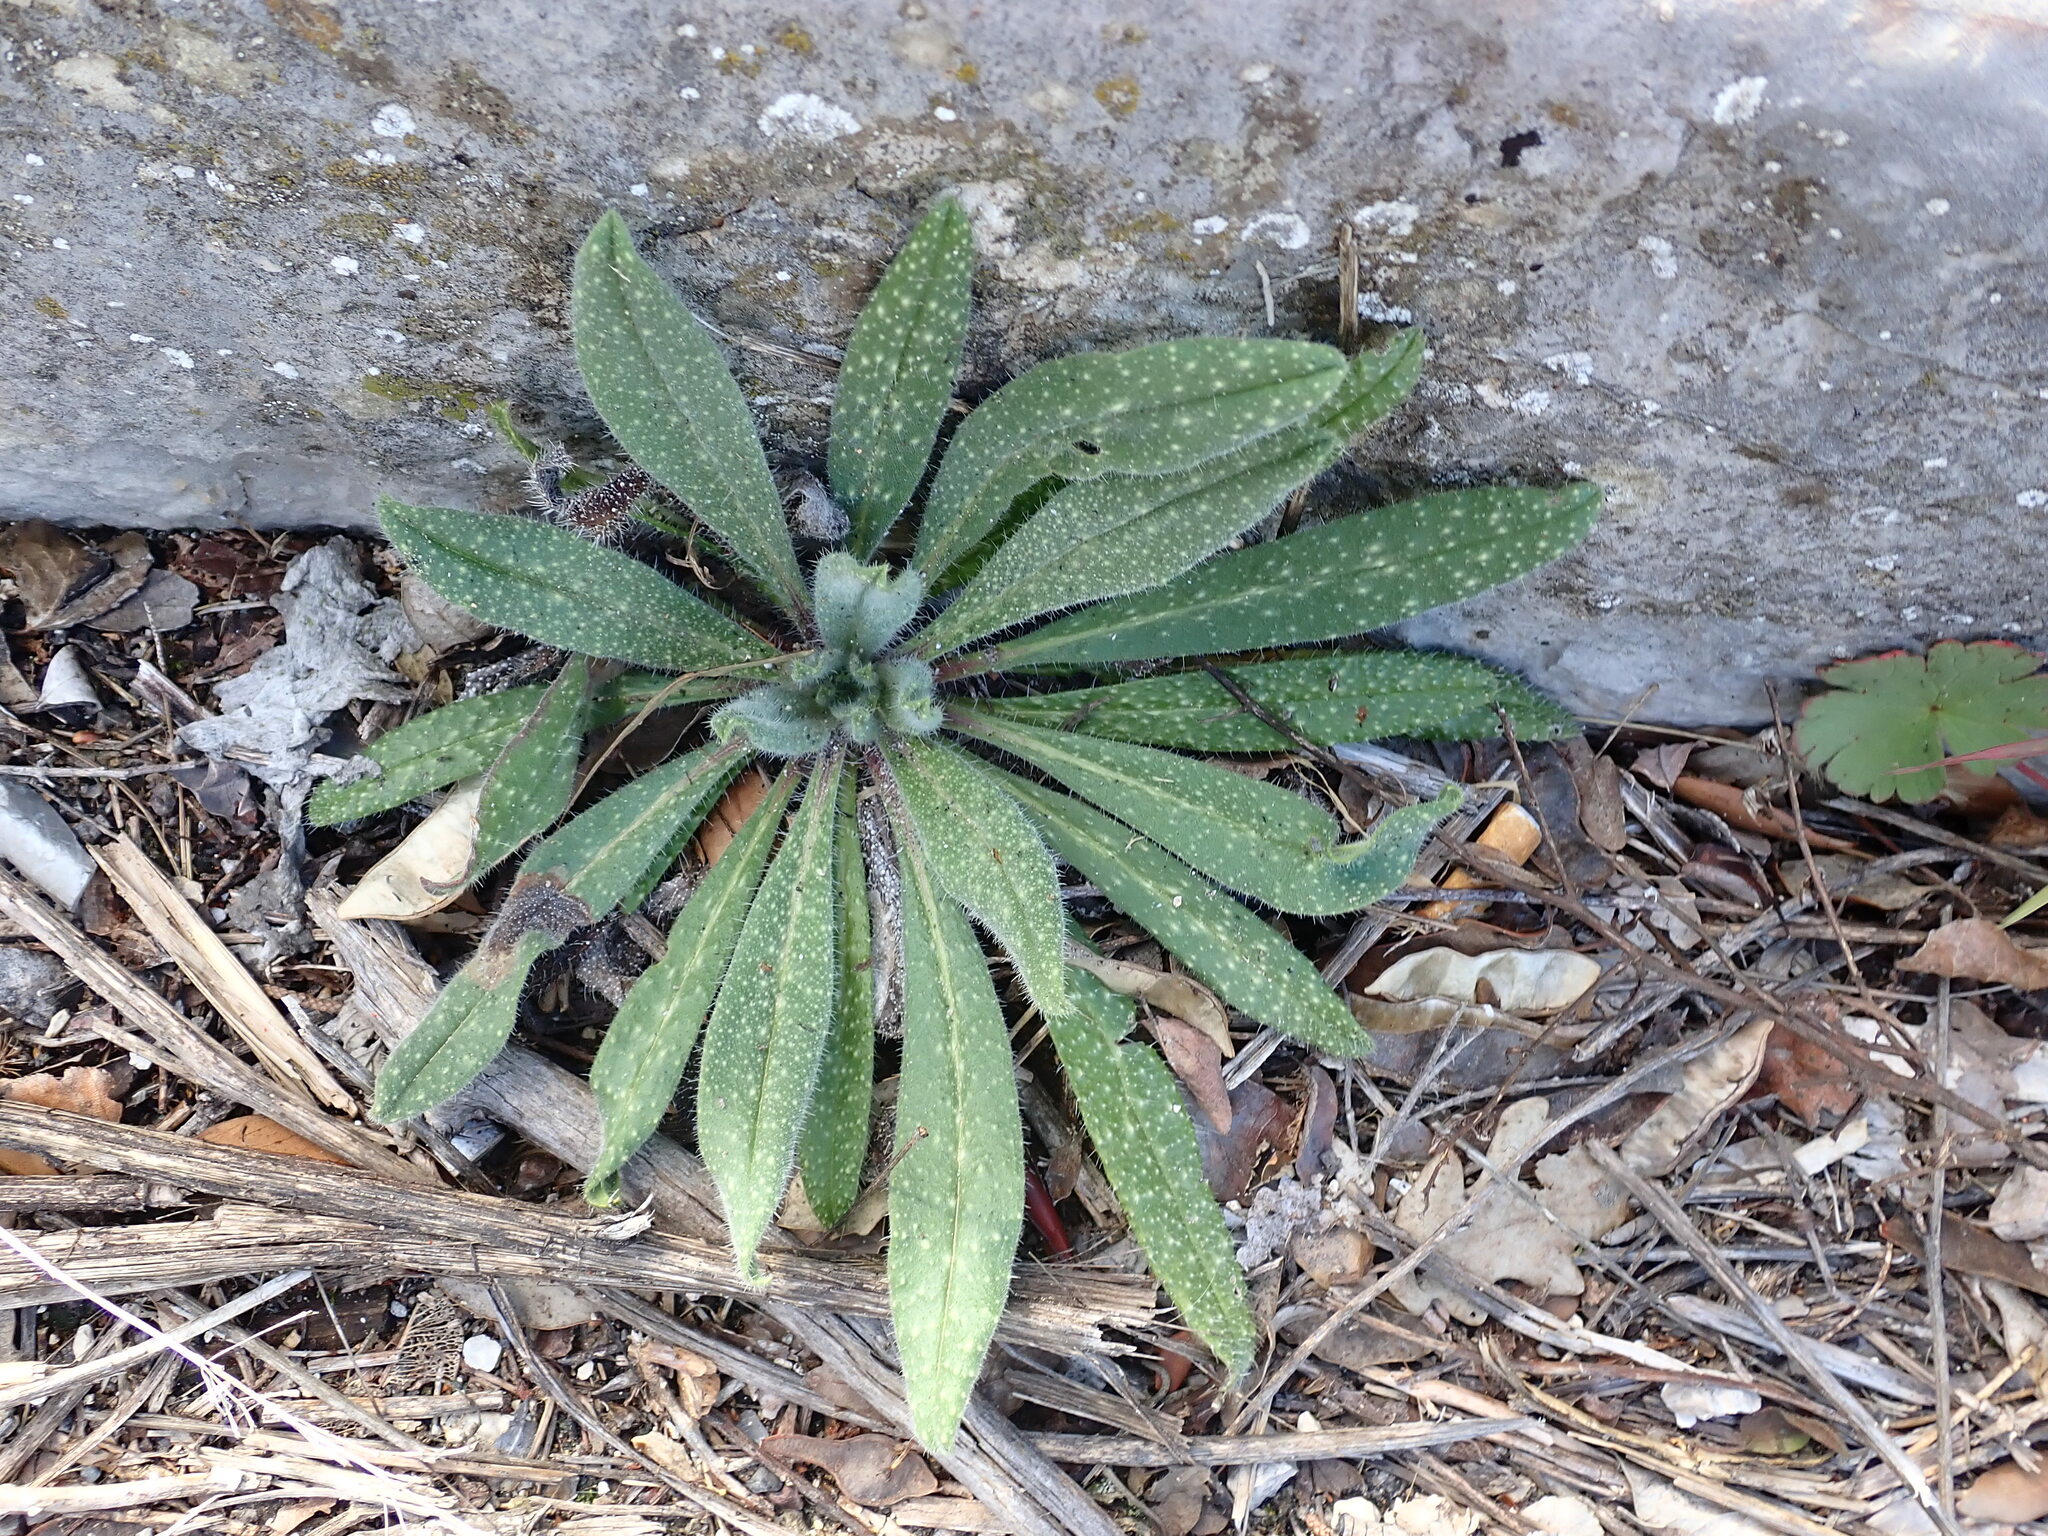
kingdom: Plantae
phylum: Tracheophyta
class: Magnoliopsida
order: Boraginales
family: Boraginaceae
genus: Echium
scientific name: Echium vulgare
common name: Common viper's bugloss
